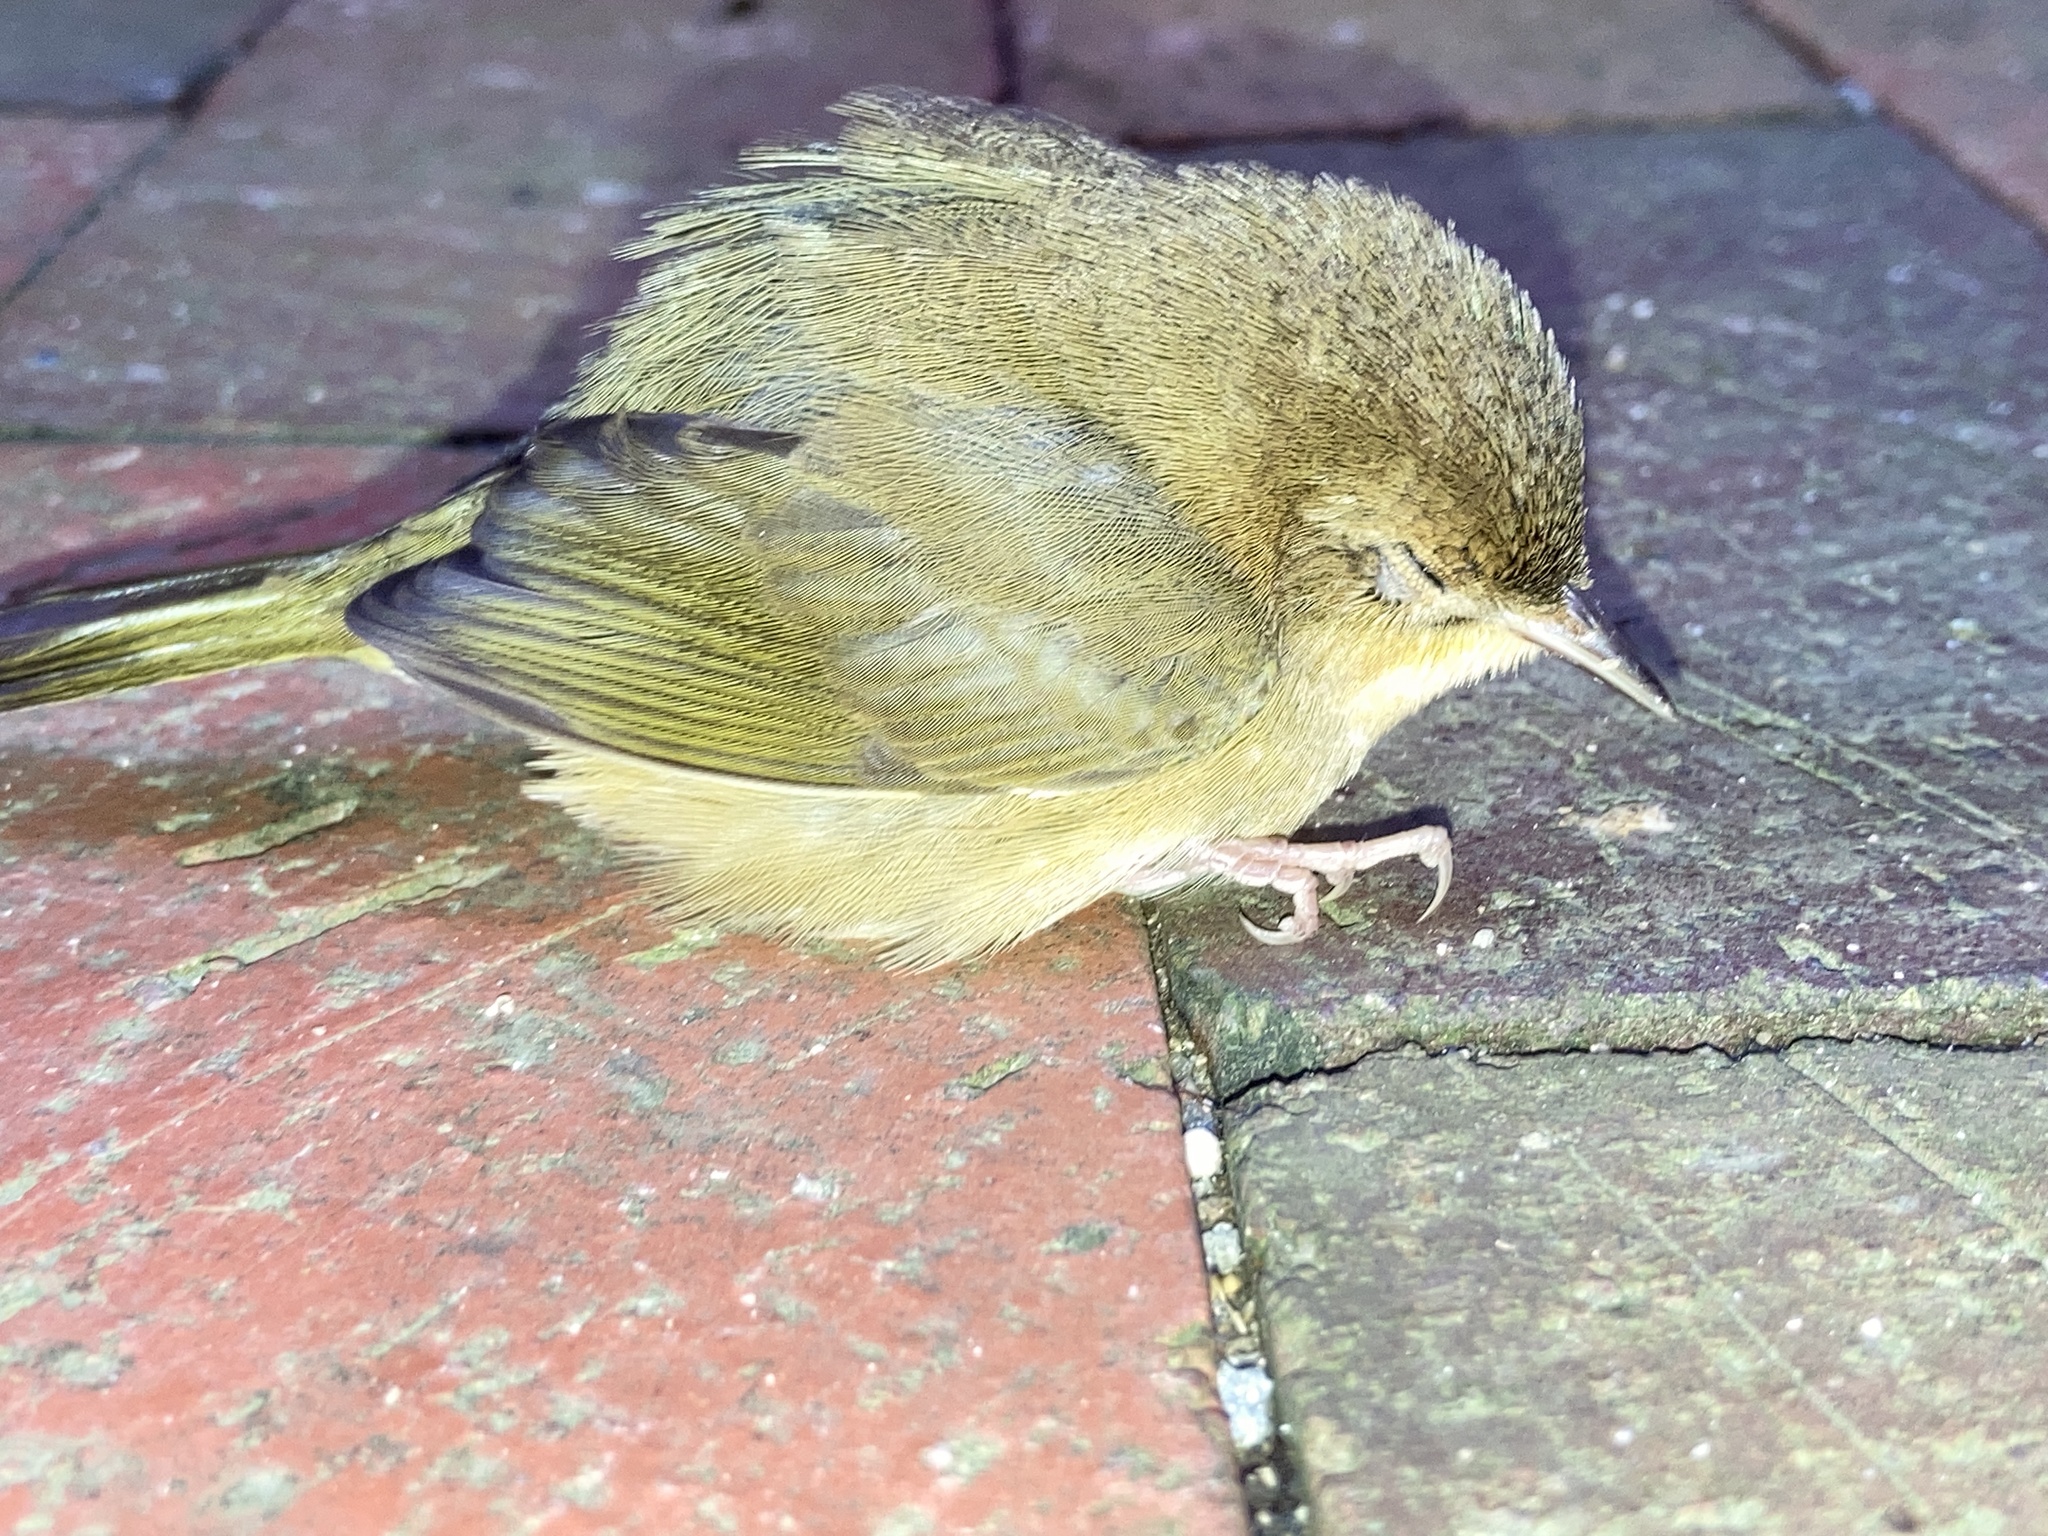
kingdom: Animalia
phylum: Chordata
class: Aves
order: Passeriformes
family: Parulidae
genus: Geothlypis
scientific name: Geothlypis trichas
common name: Common yellowthroat
